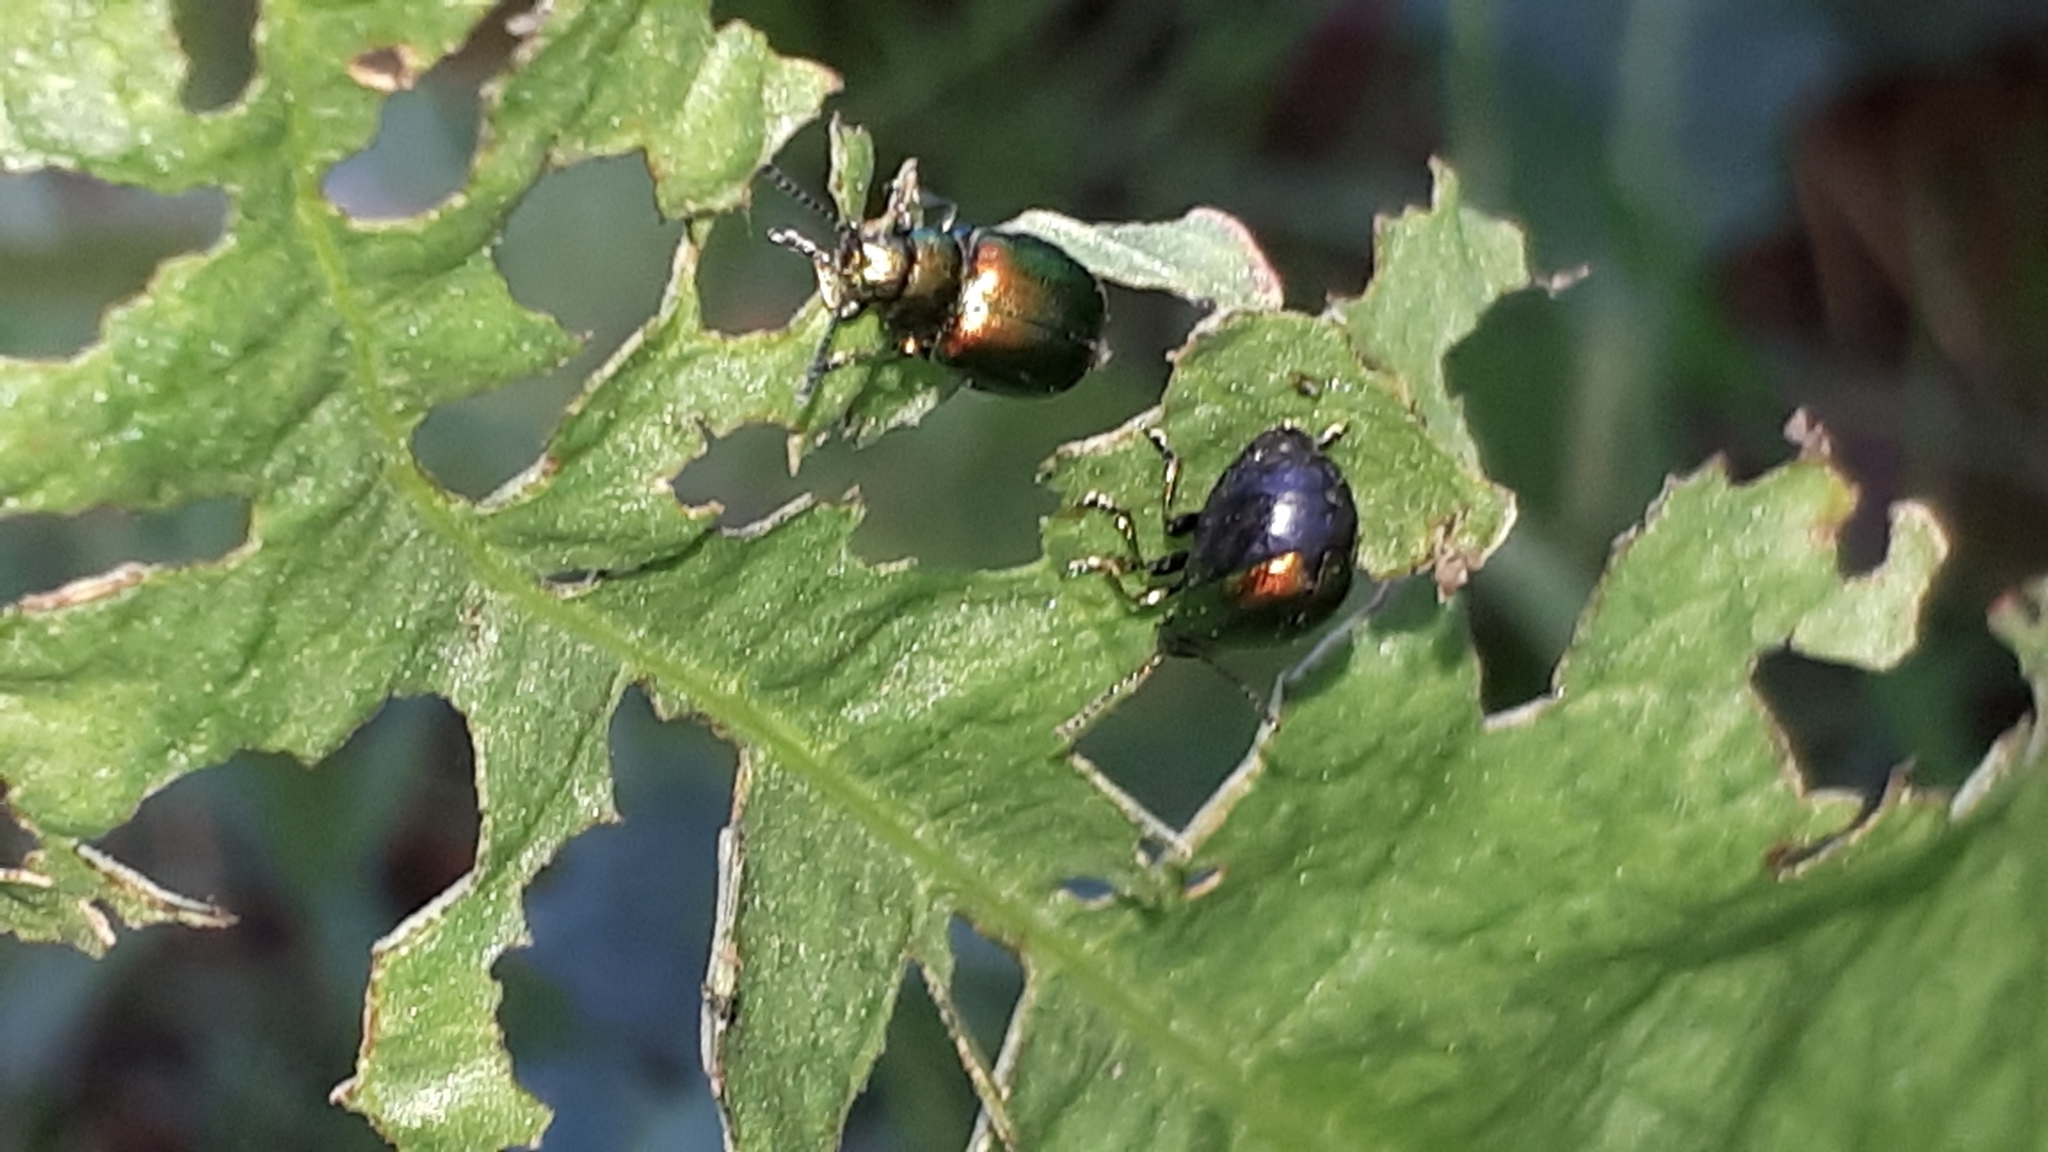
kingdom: Animalia
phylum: Arthropoda
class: Insecta
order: Coleoptera
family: Chrysomelidae
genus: Gastrophysa
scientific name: Gastrophysa viridula
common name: Green dock beetle
